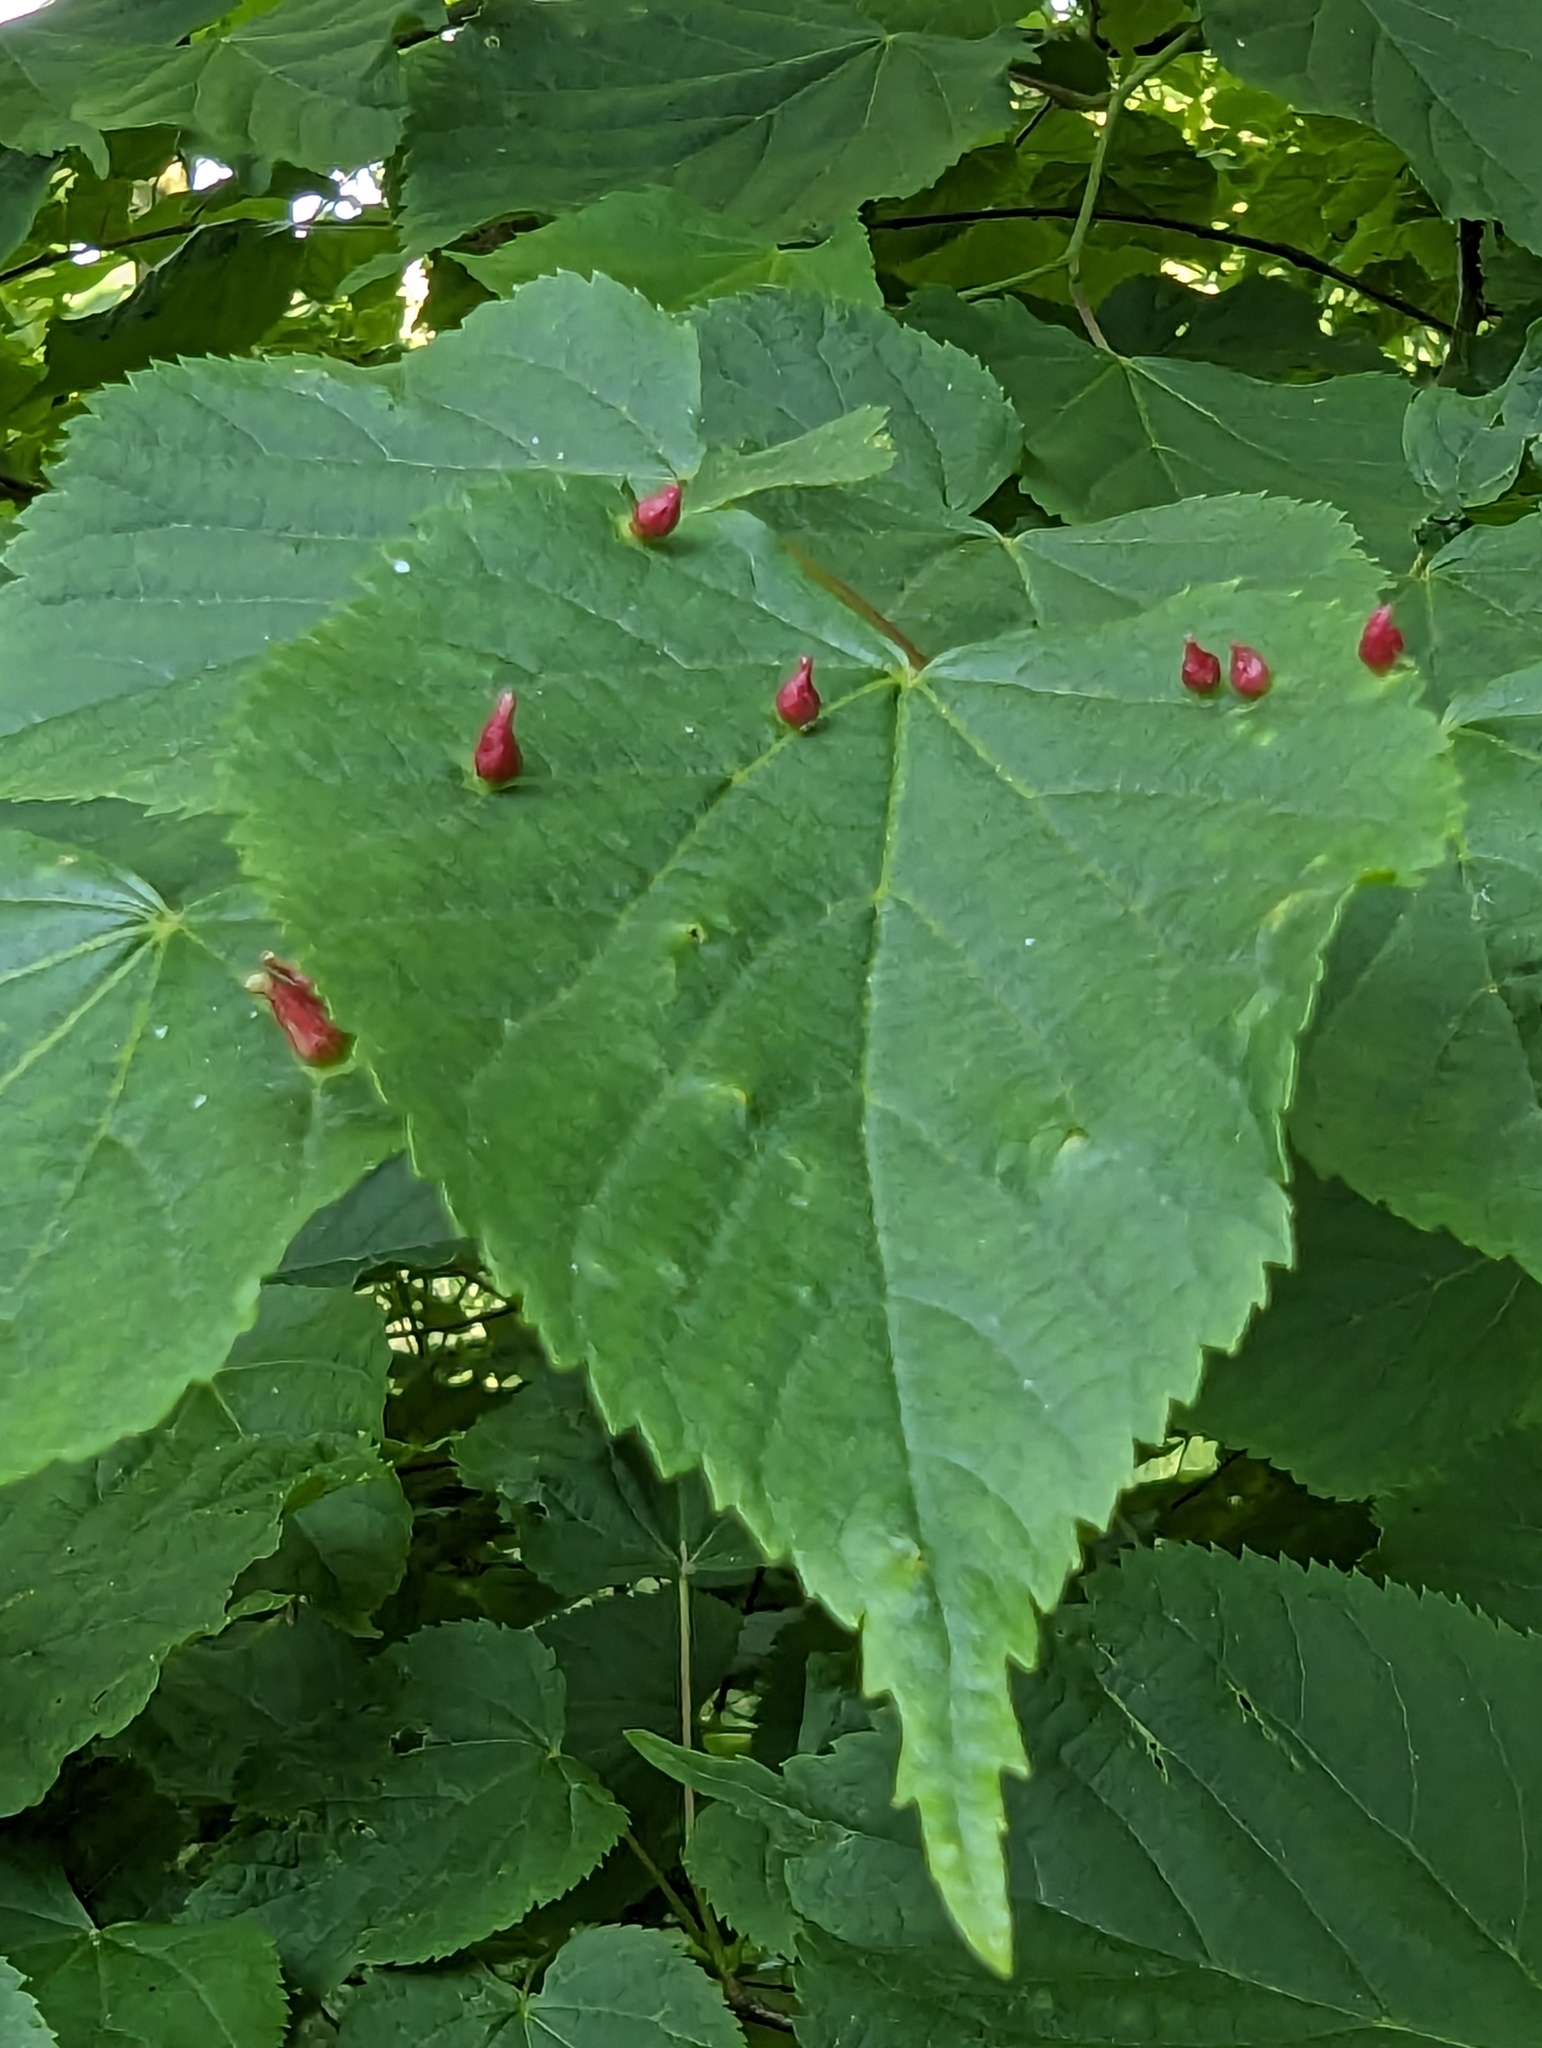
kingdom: Animalia
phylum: Arthropoda
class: Arachnida
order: Trombidiformes
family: Eriophyidae
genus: Eriophyes
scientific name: Eriophyes tiliae
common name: Red nail gall mite
